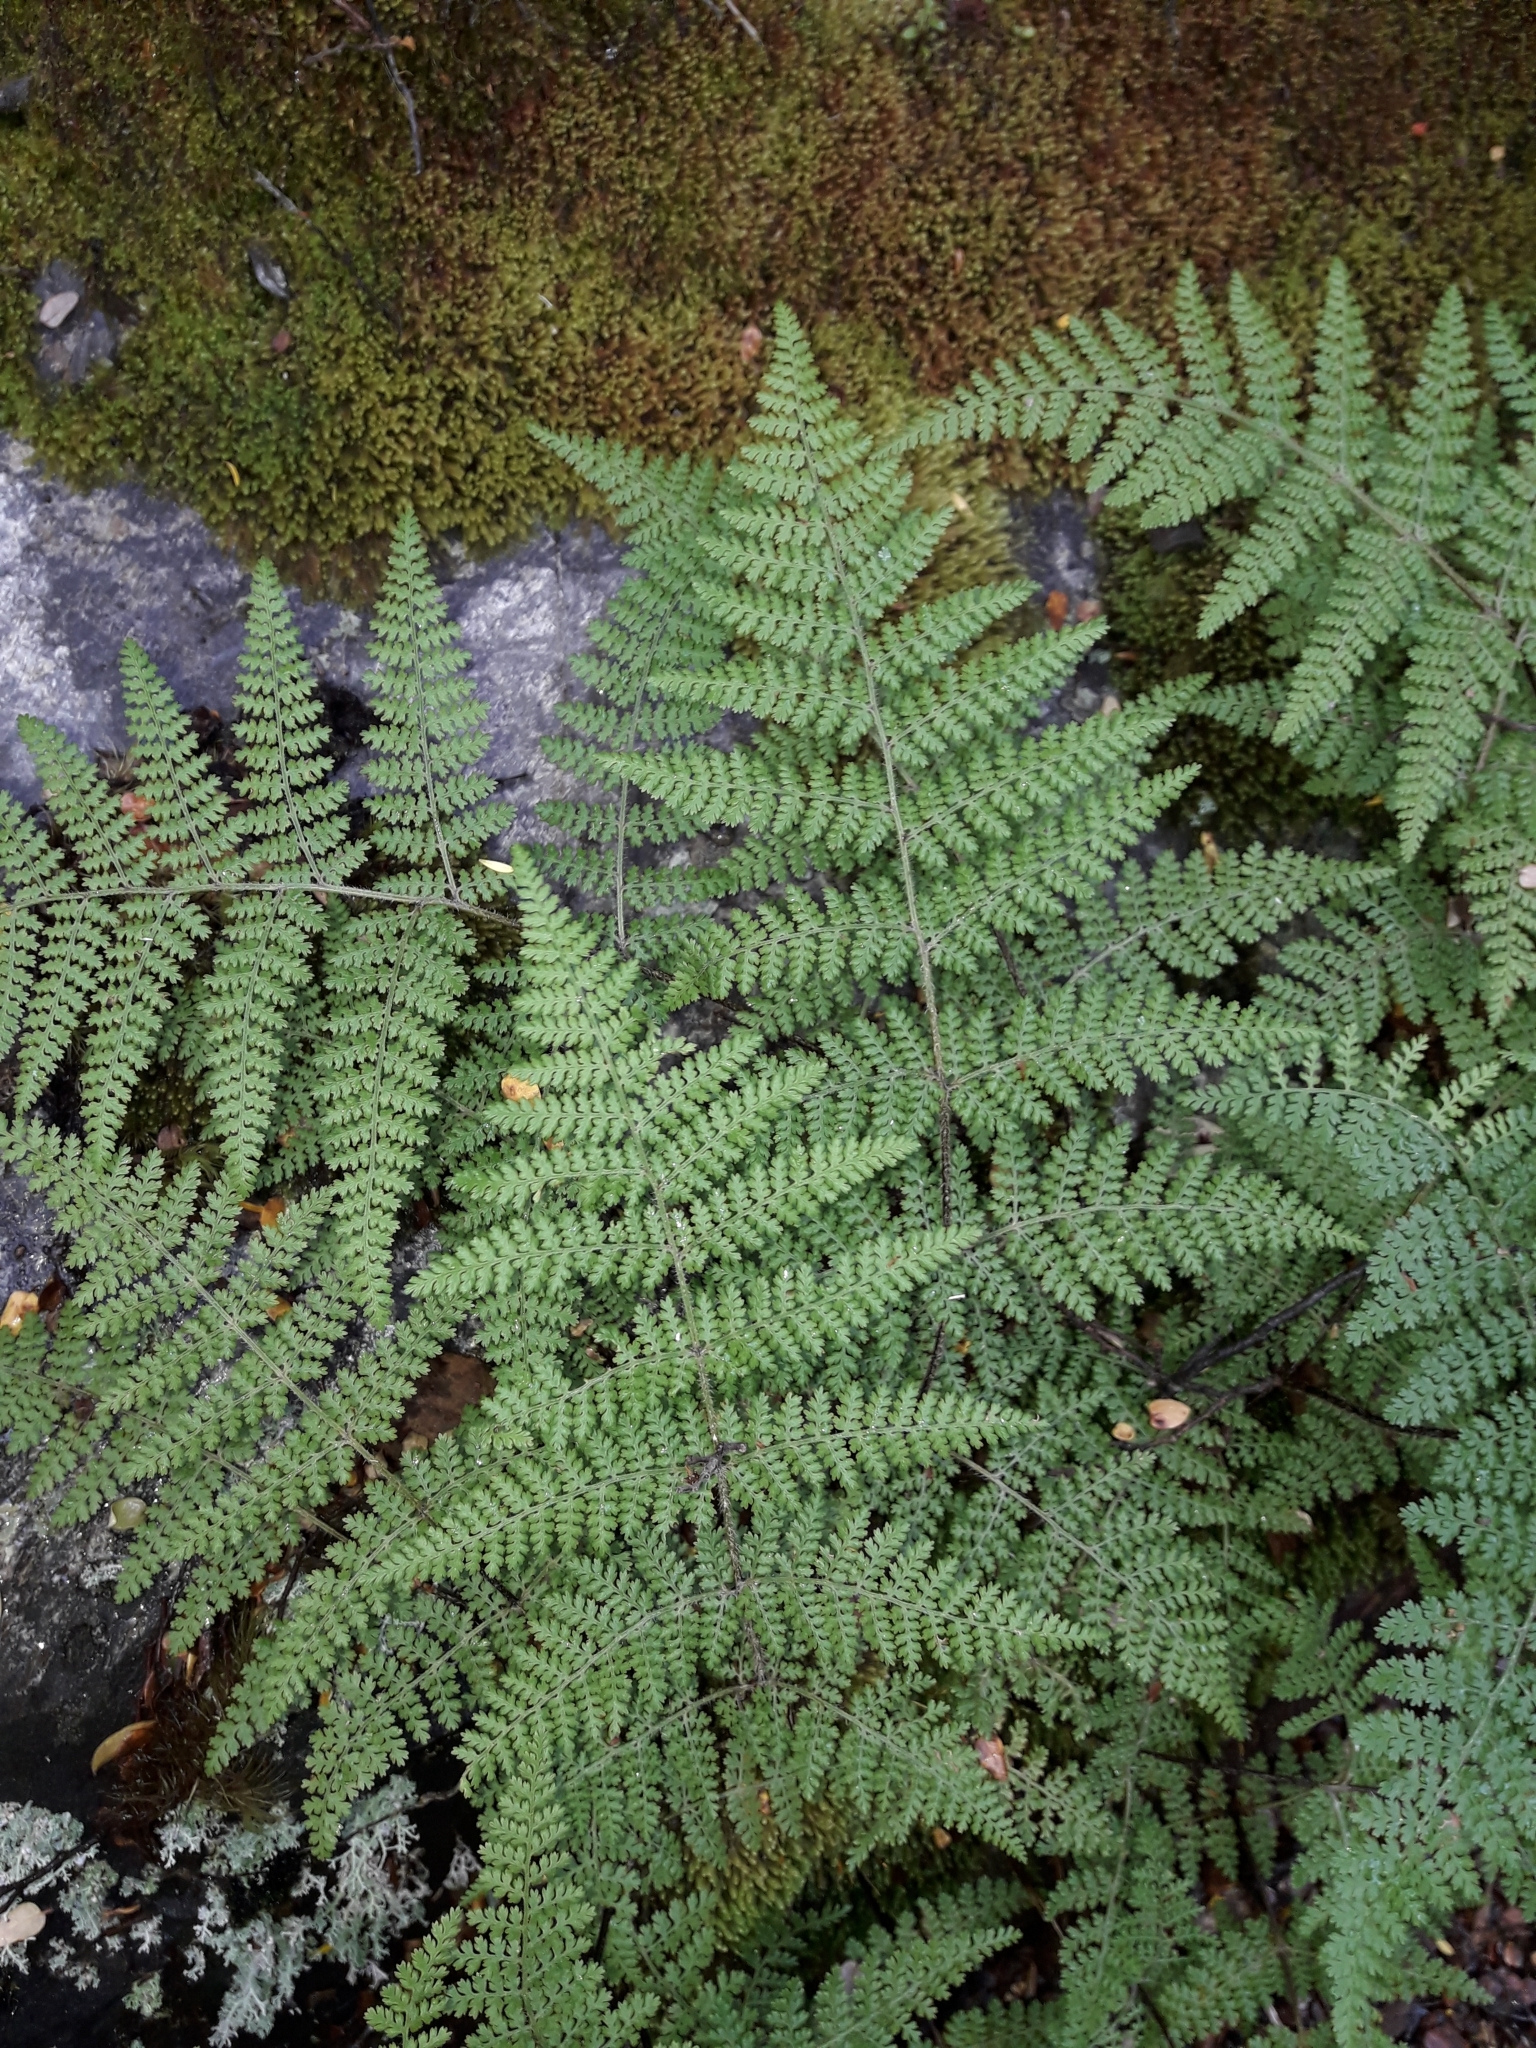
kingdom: Plantae
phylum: Tracheophyta
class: Polypodiopsida
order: Polypodiales
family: Dennstaedtiaceae
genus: Hypolepis
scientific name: Hypolepis millefolium
